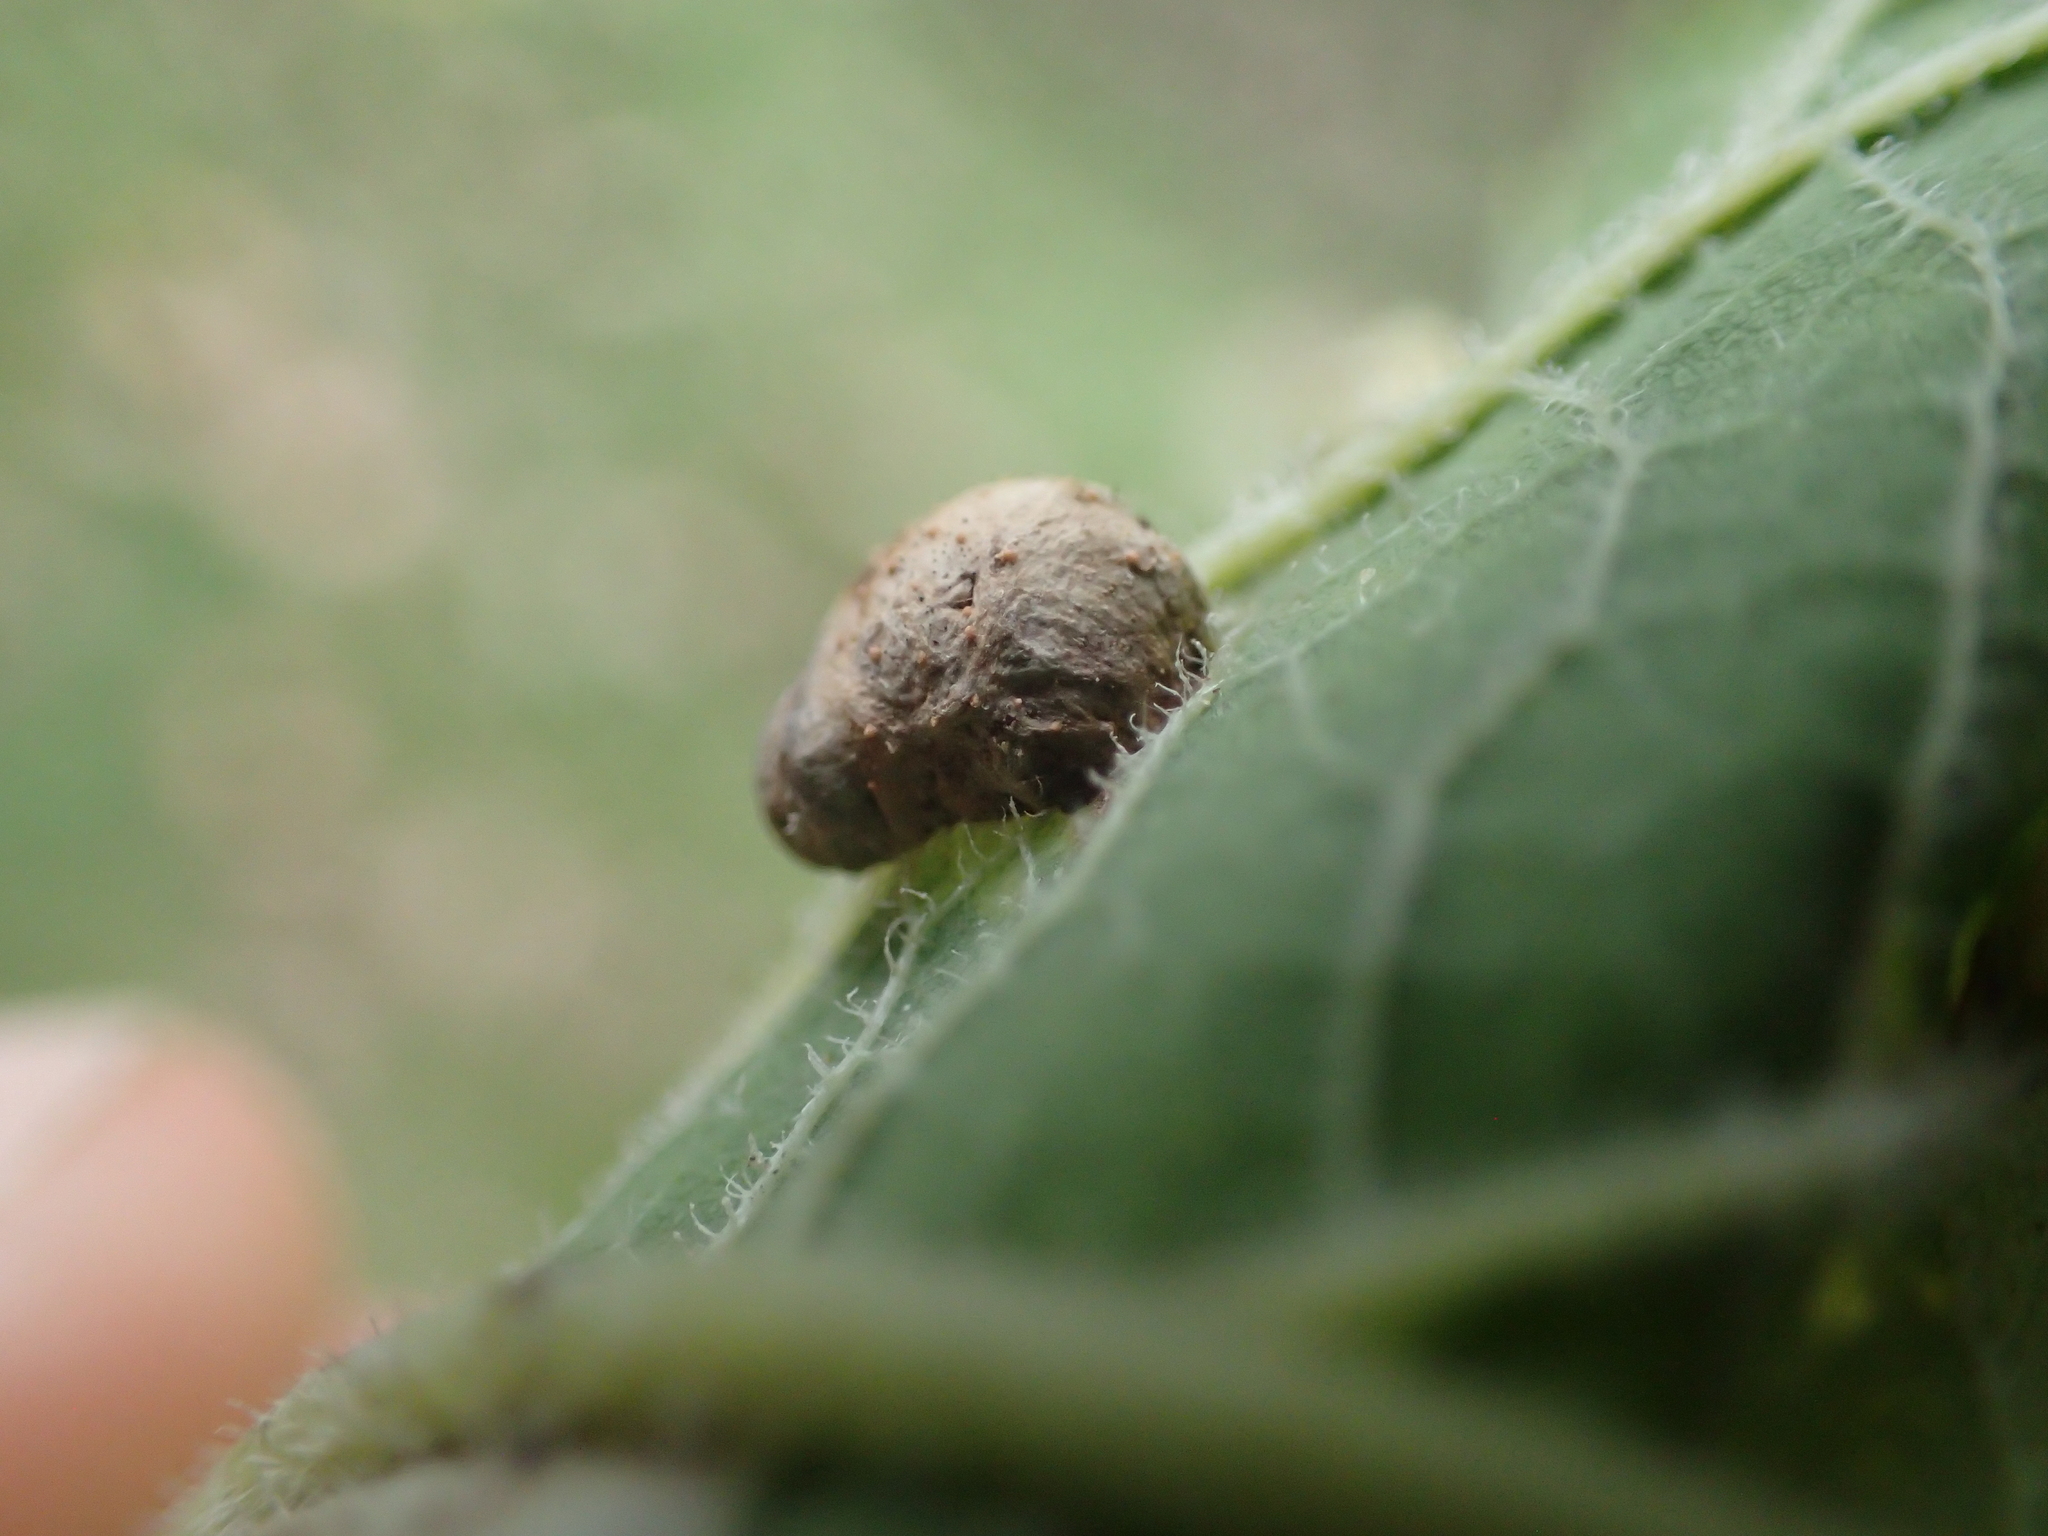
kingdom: Animalia
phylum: Arthropoda
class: Insecta
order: Hemiptera
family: Aphalaridae
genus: Pachypsylla
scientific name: Pachypsylla celtidismamma
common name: Hackberry nipplegall psyllid
